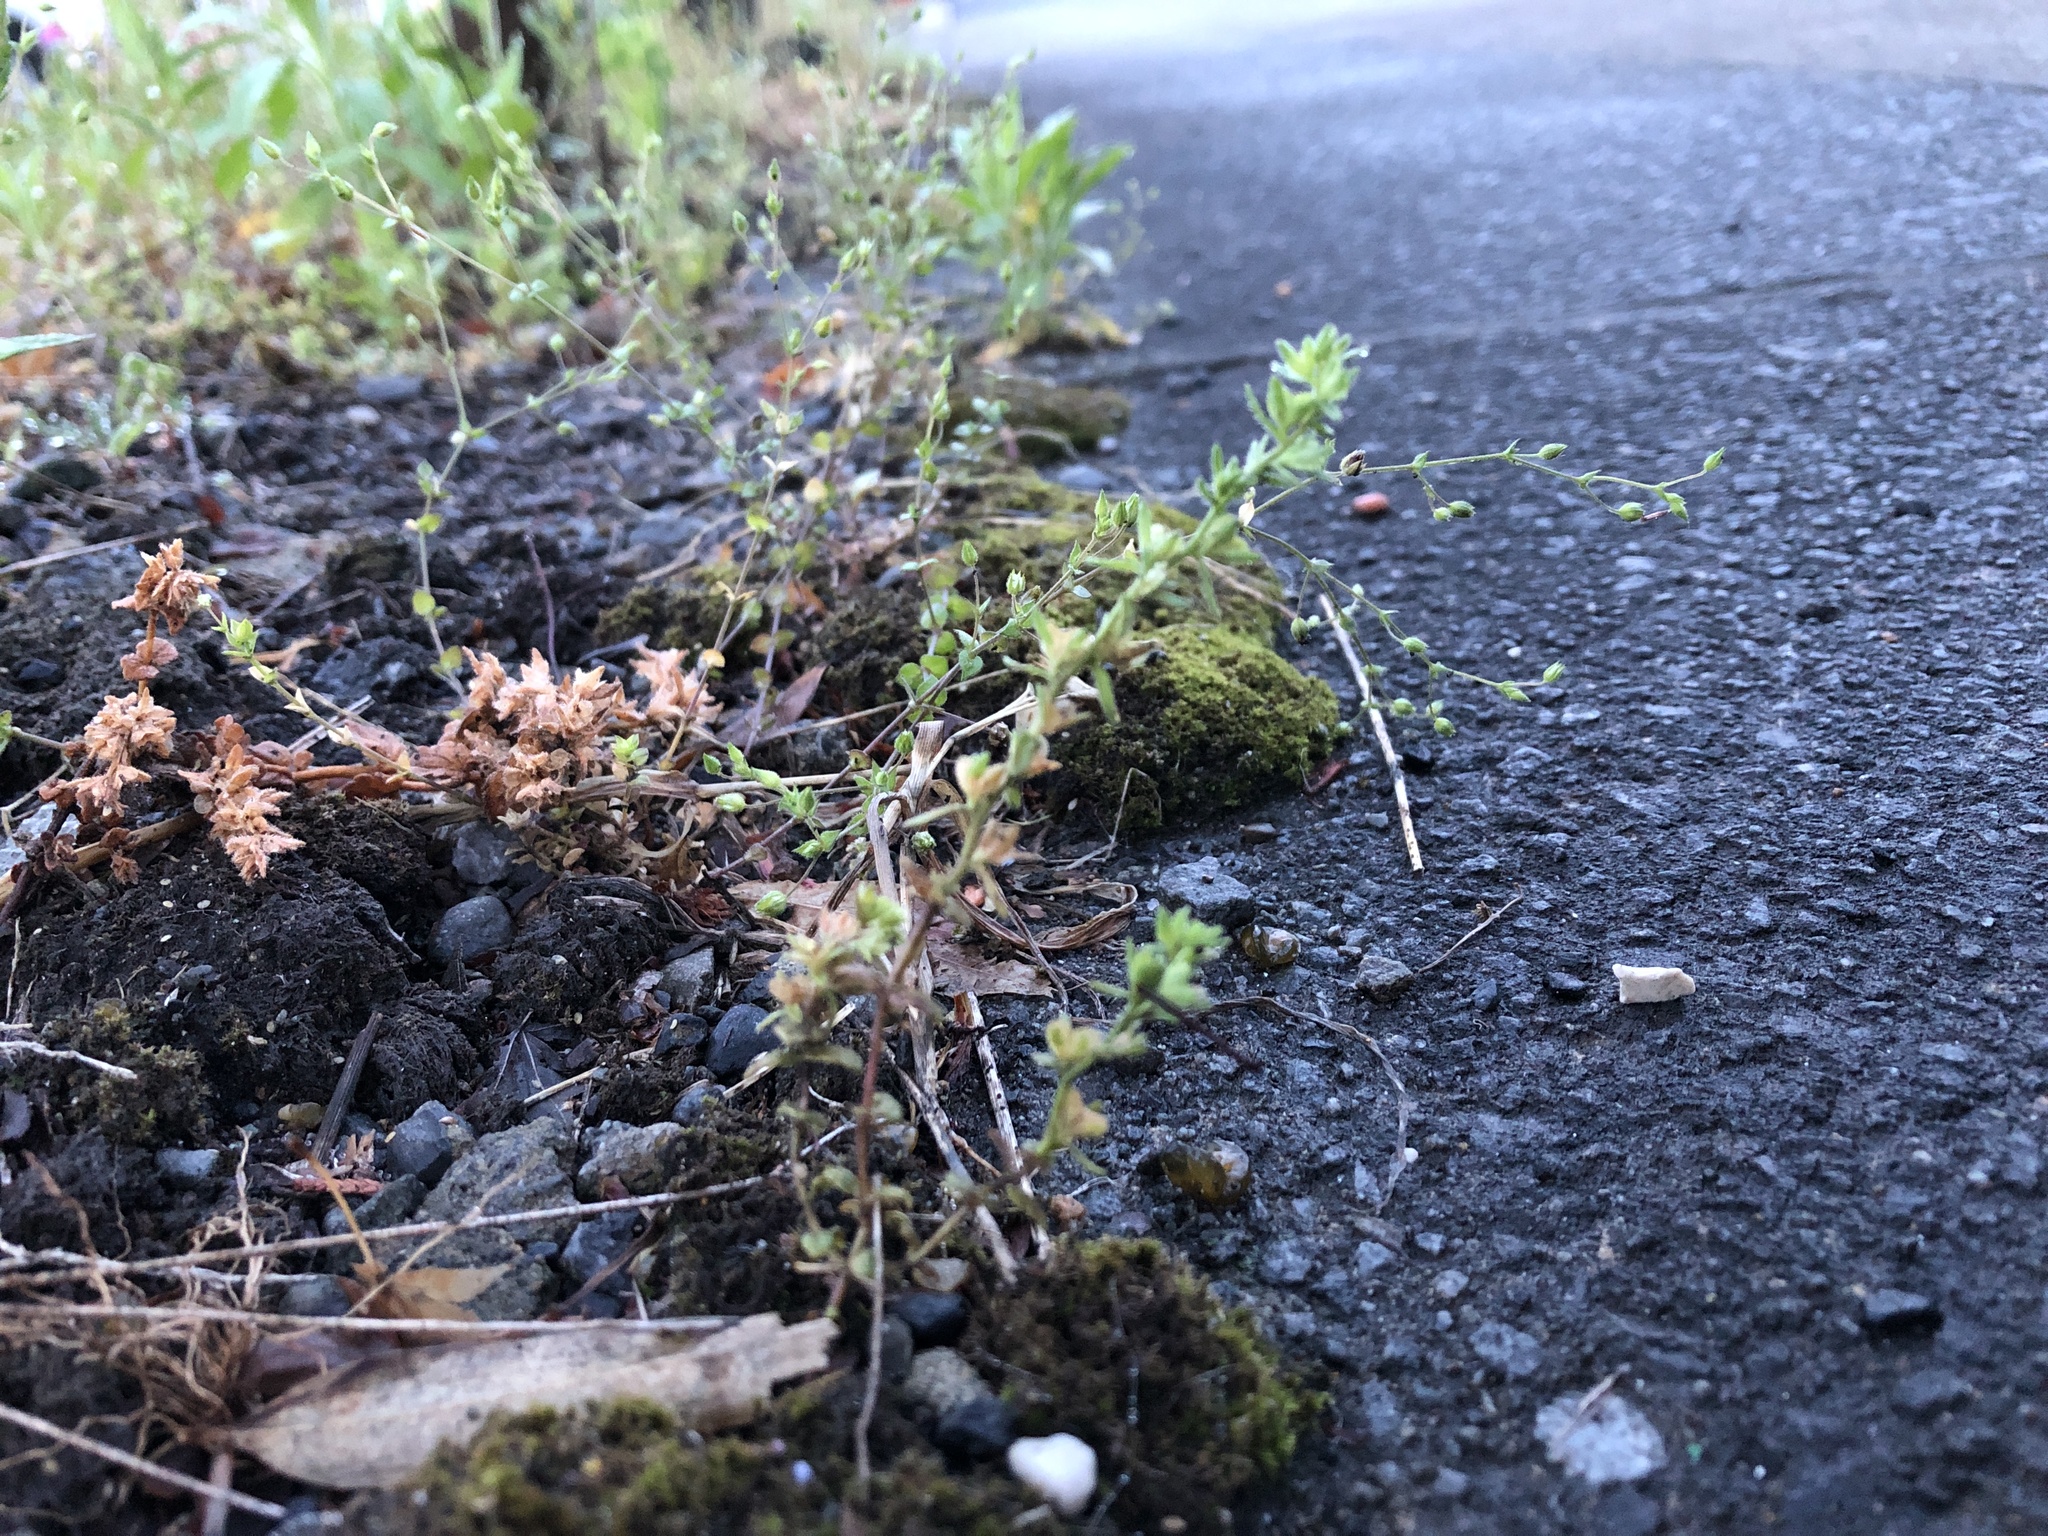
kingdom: Plantae
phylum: Tracheophyta
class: Magnoliopsida
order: Lamiales
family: Plantaginaceae
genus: Veronica
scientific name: Veronica arvensis
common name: Corn speedwell
